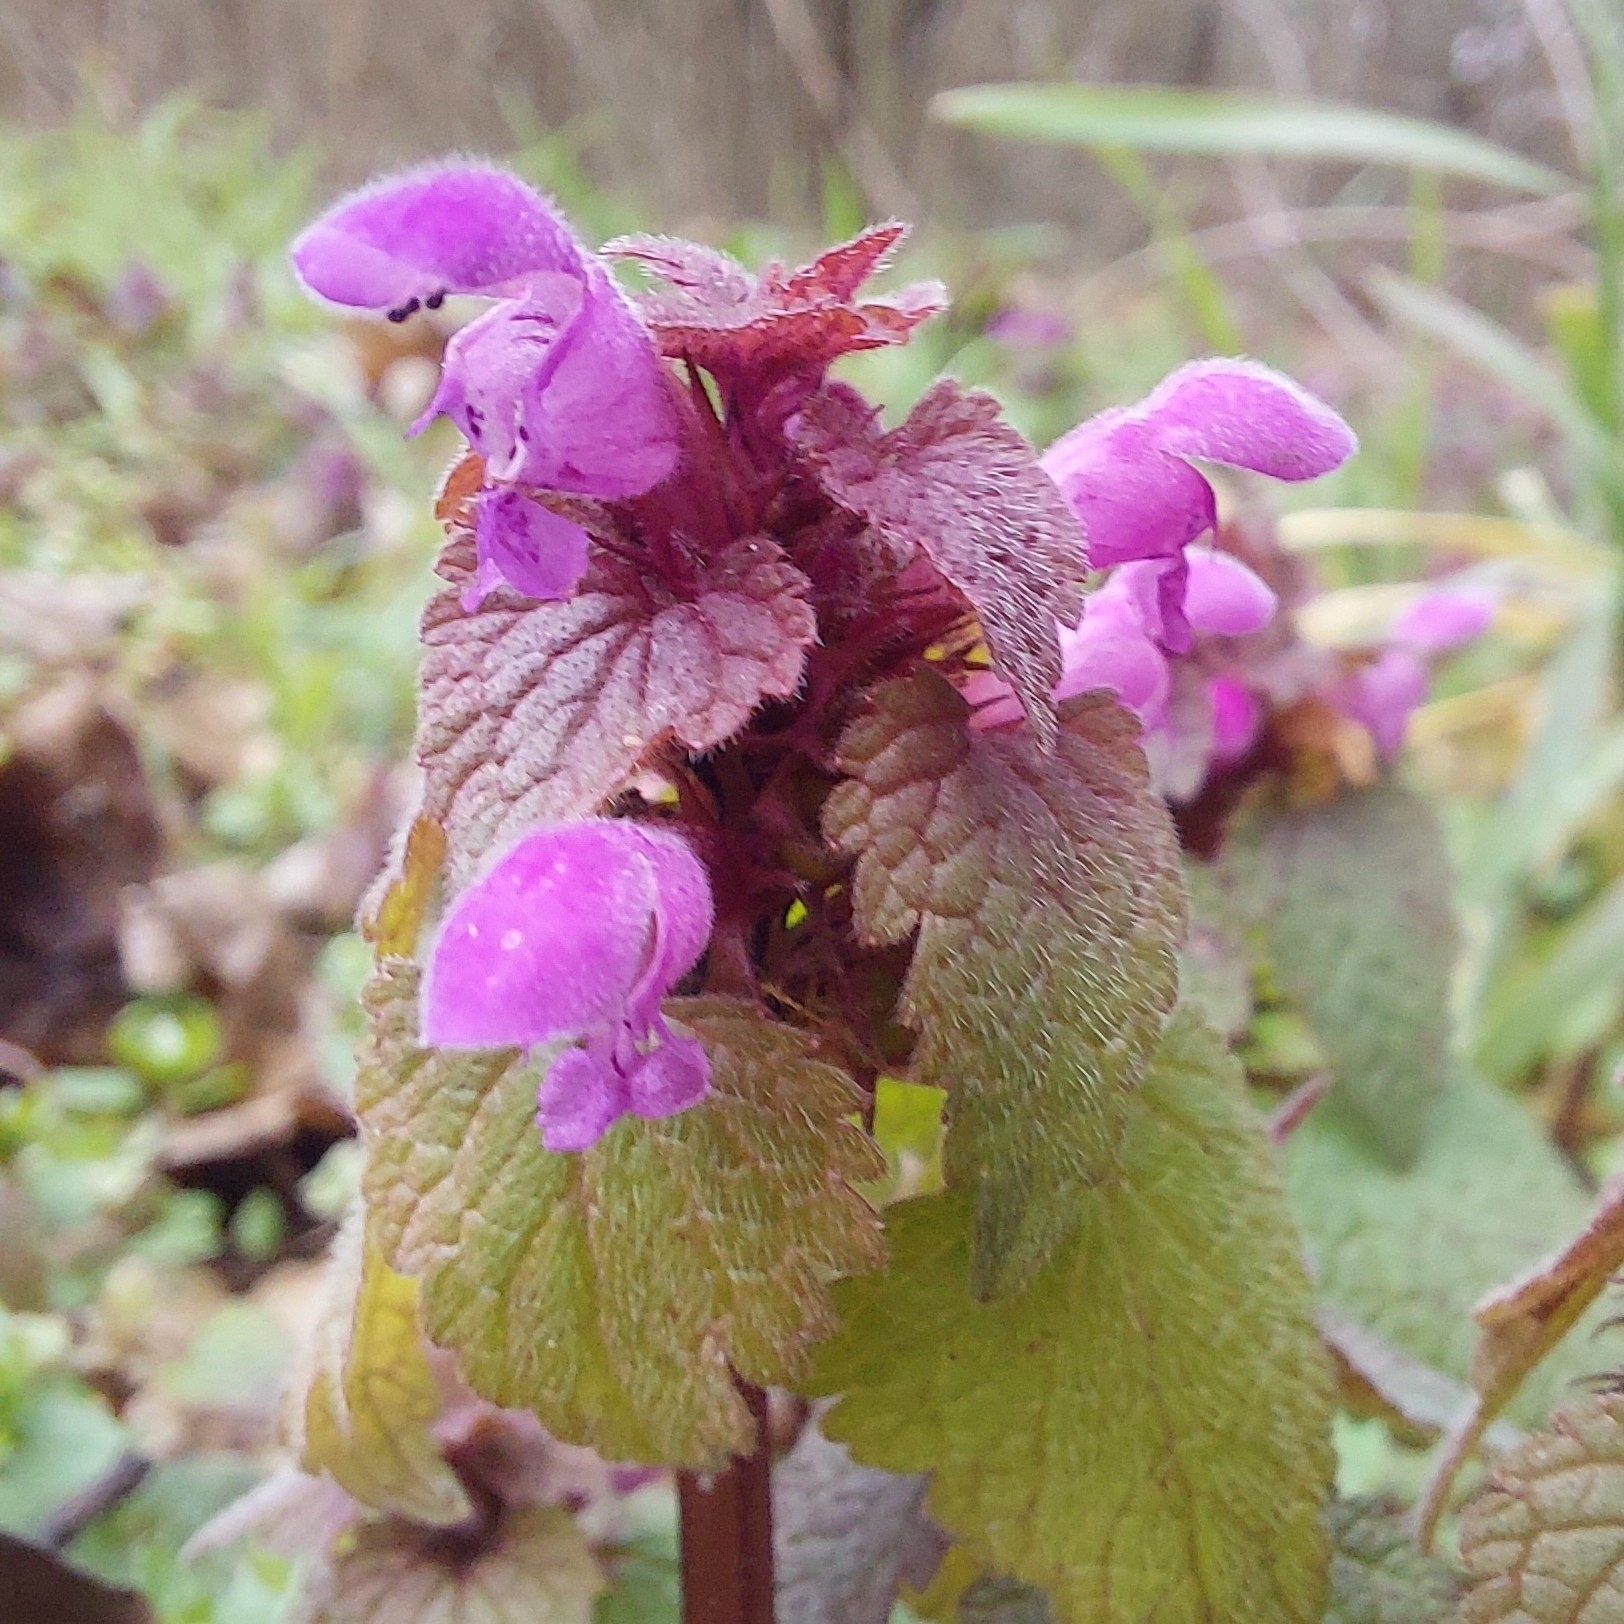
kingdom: Plantae
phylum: Tracheophyta
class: Magnoliopsida
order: Lamiales
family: Lamiaceae
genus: Lamium
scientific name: Lamium purpureum
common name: Red dead-nettle
